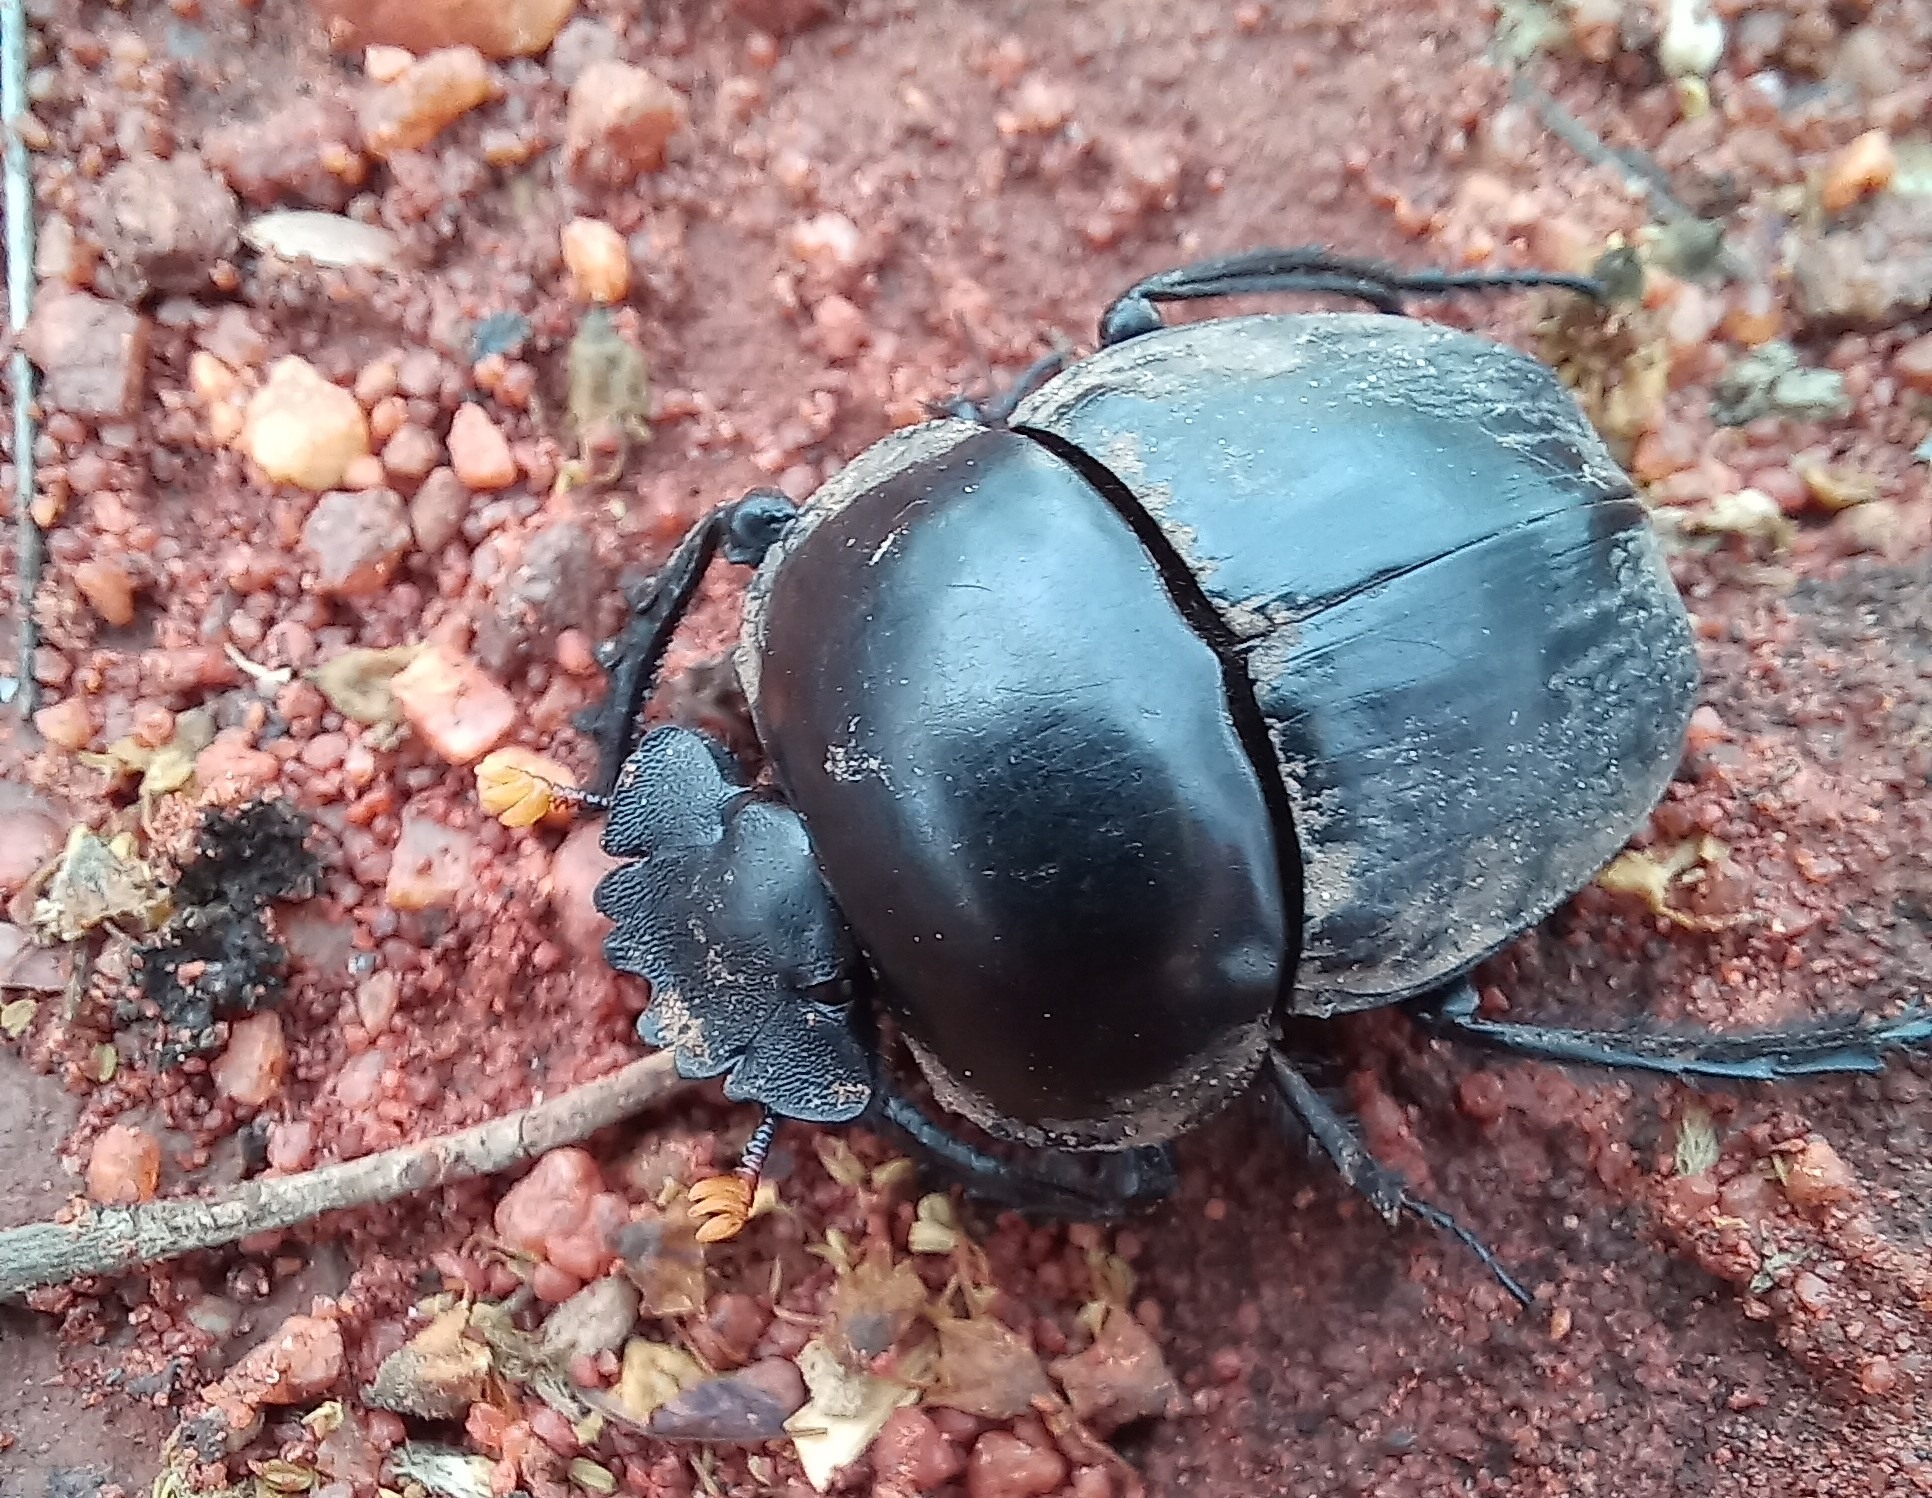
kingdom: Animalia
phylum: Arthropoda
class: Insecta
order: Coleoptera
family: Scarabaeidae
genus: Scarabaeus
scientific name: Scarabaeus rusticus
